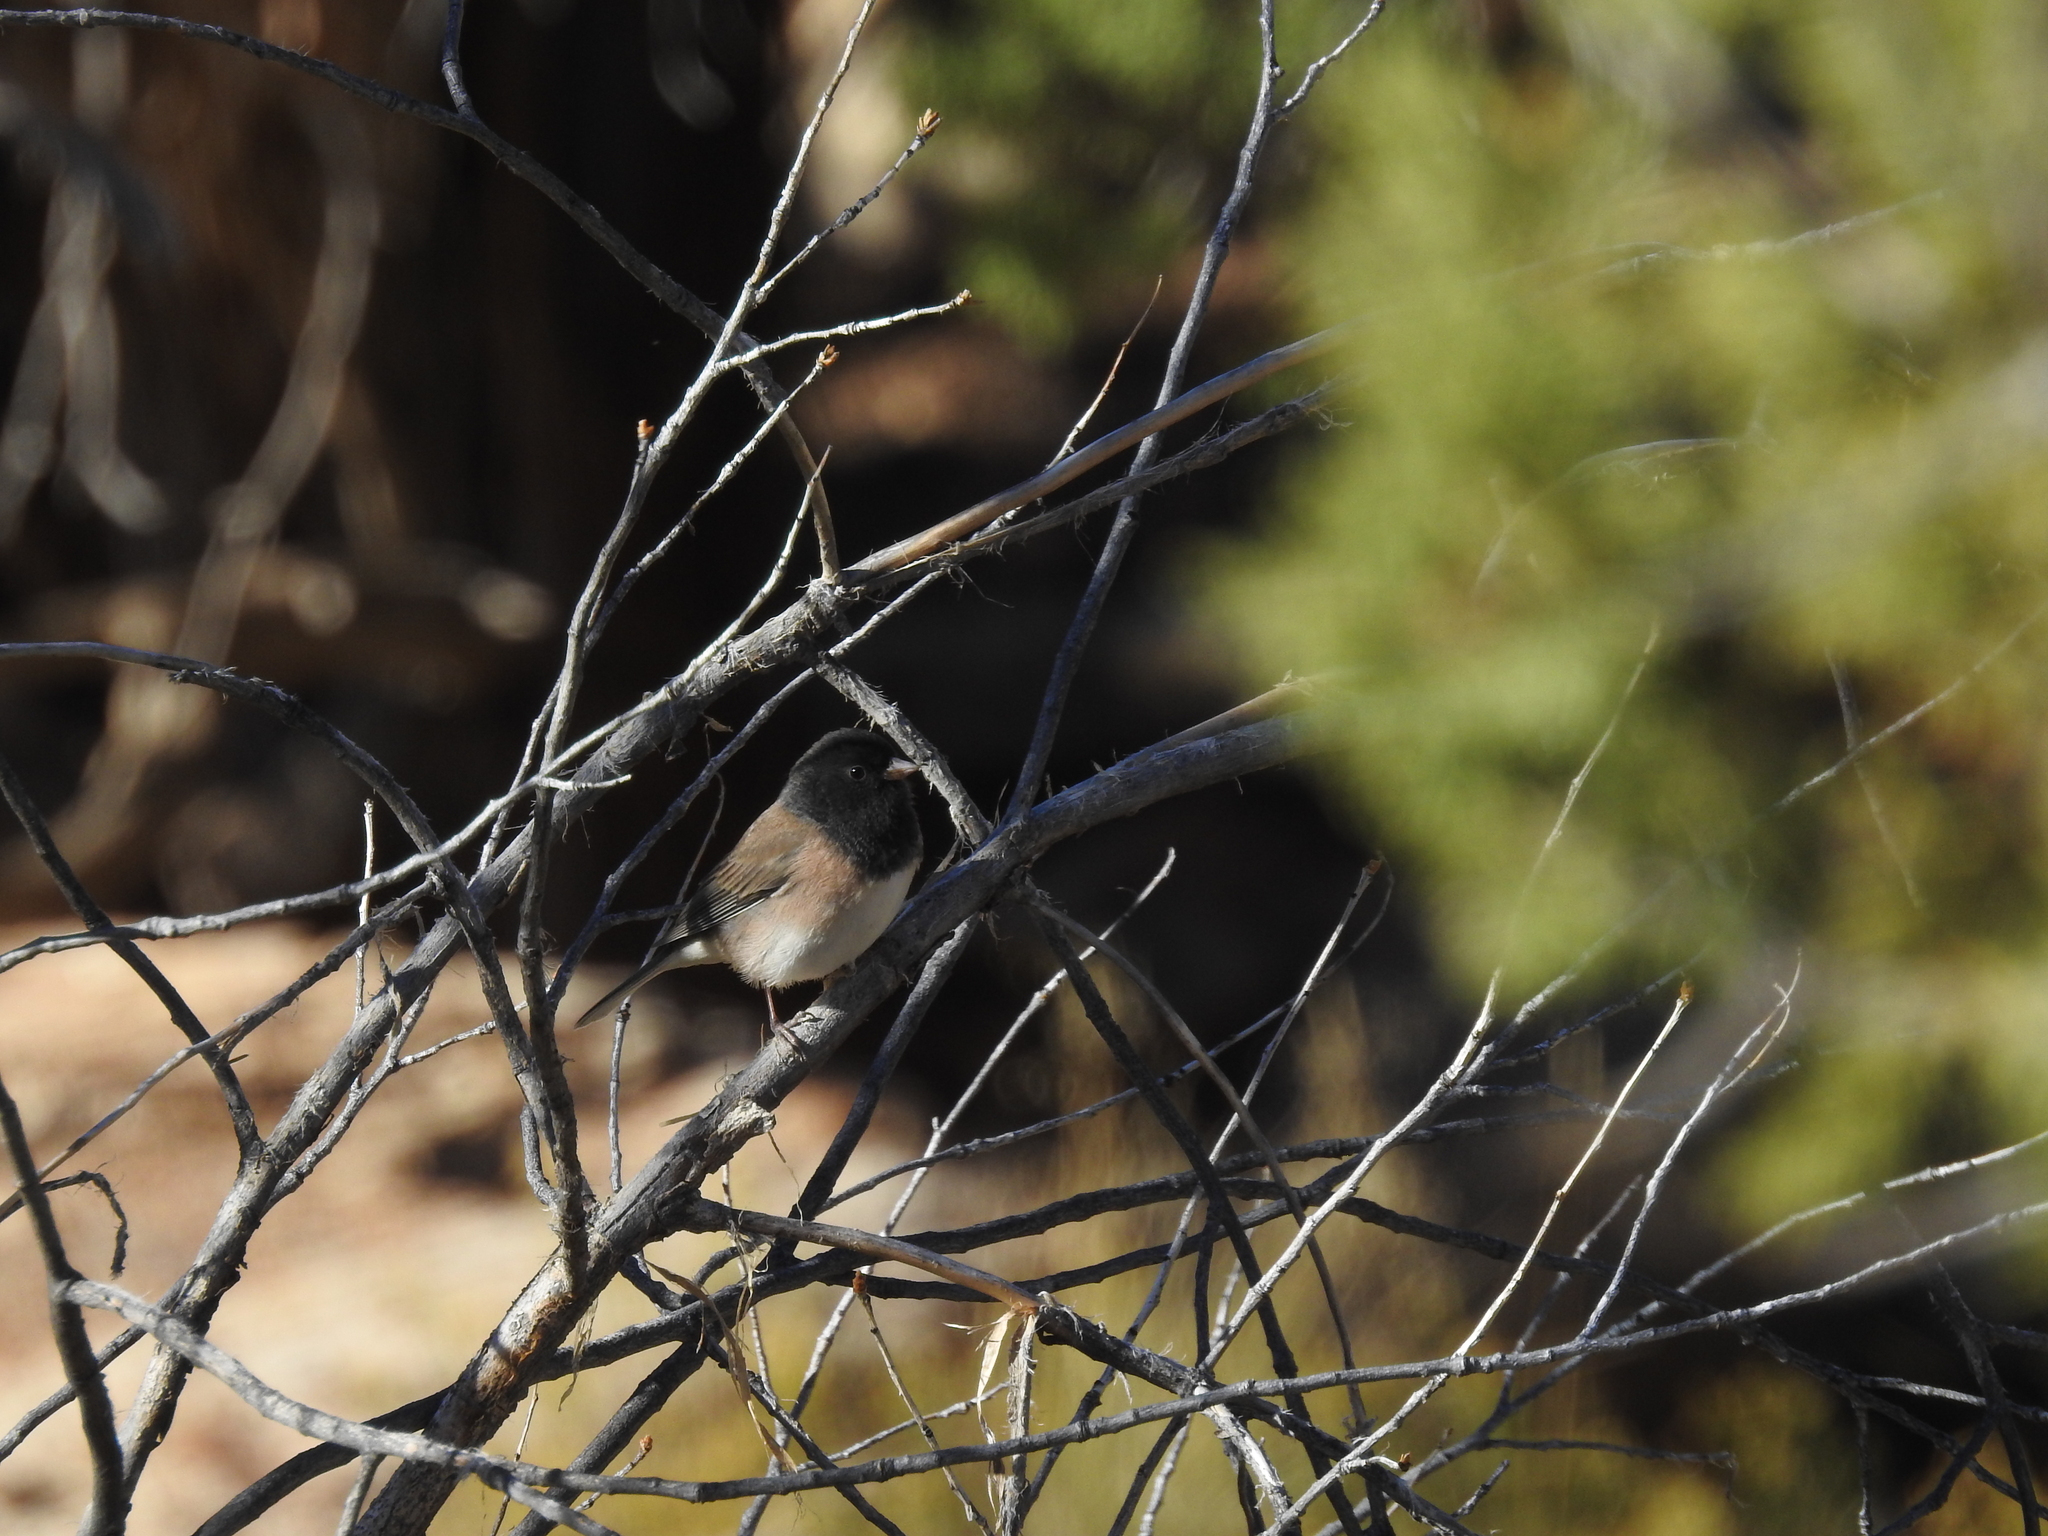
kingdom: Animalia
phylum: Chordata
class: Aves
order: Passeriformes
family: Passerellidae
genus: Junco
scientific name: Junco hyemalis
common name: Dark-eyed junco
